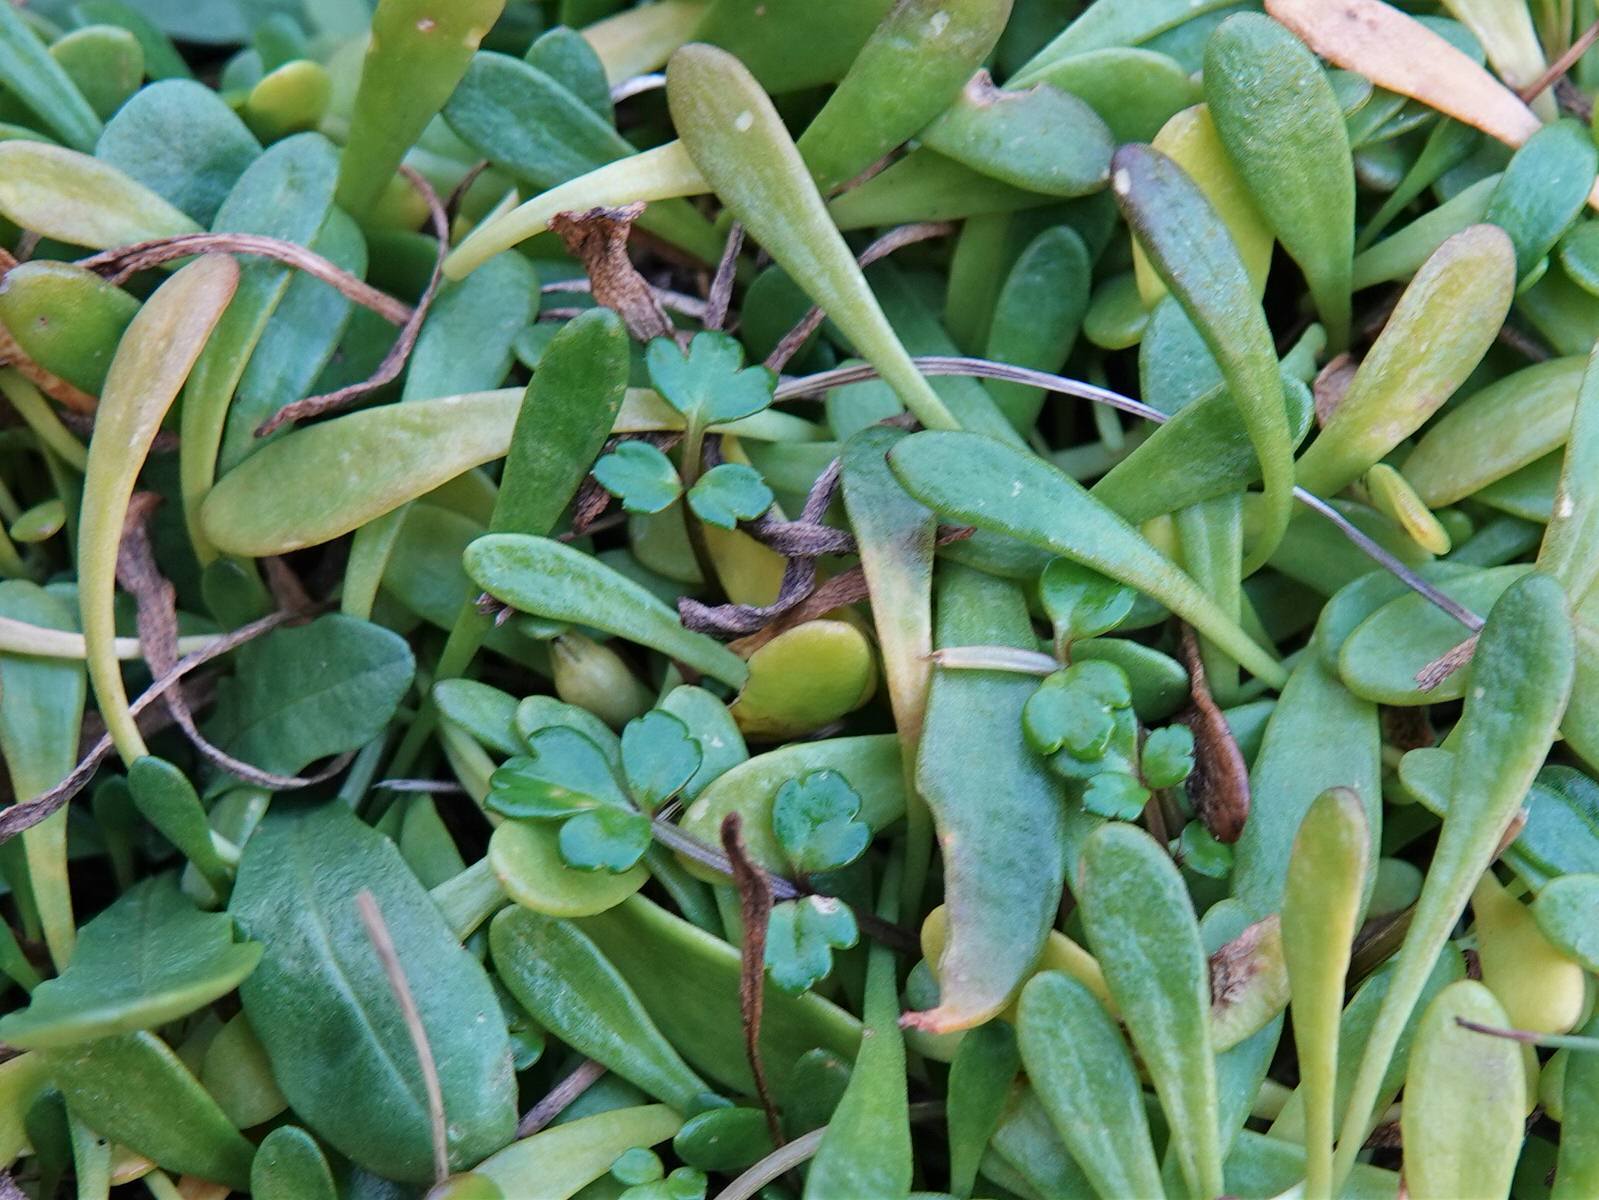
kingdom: Plantae
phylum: Tracheophyta
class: Magnoliopsida
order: Apiales
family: Apiaceae
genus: Apium
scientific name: Apium prostratum
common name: Prostrate marshwort
